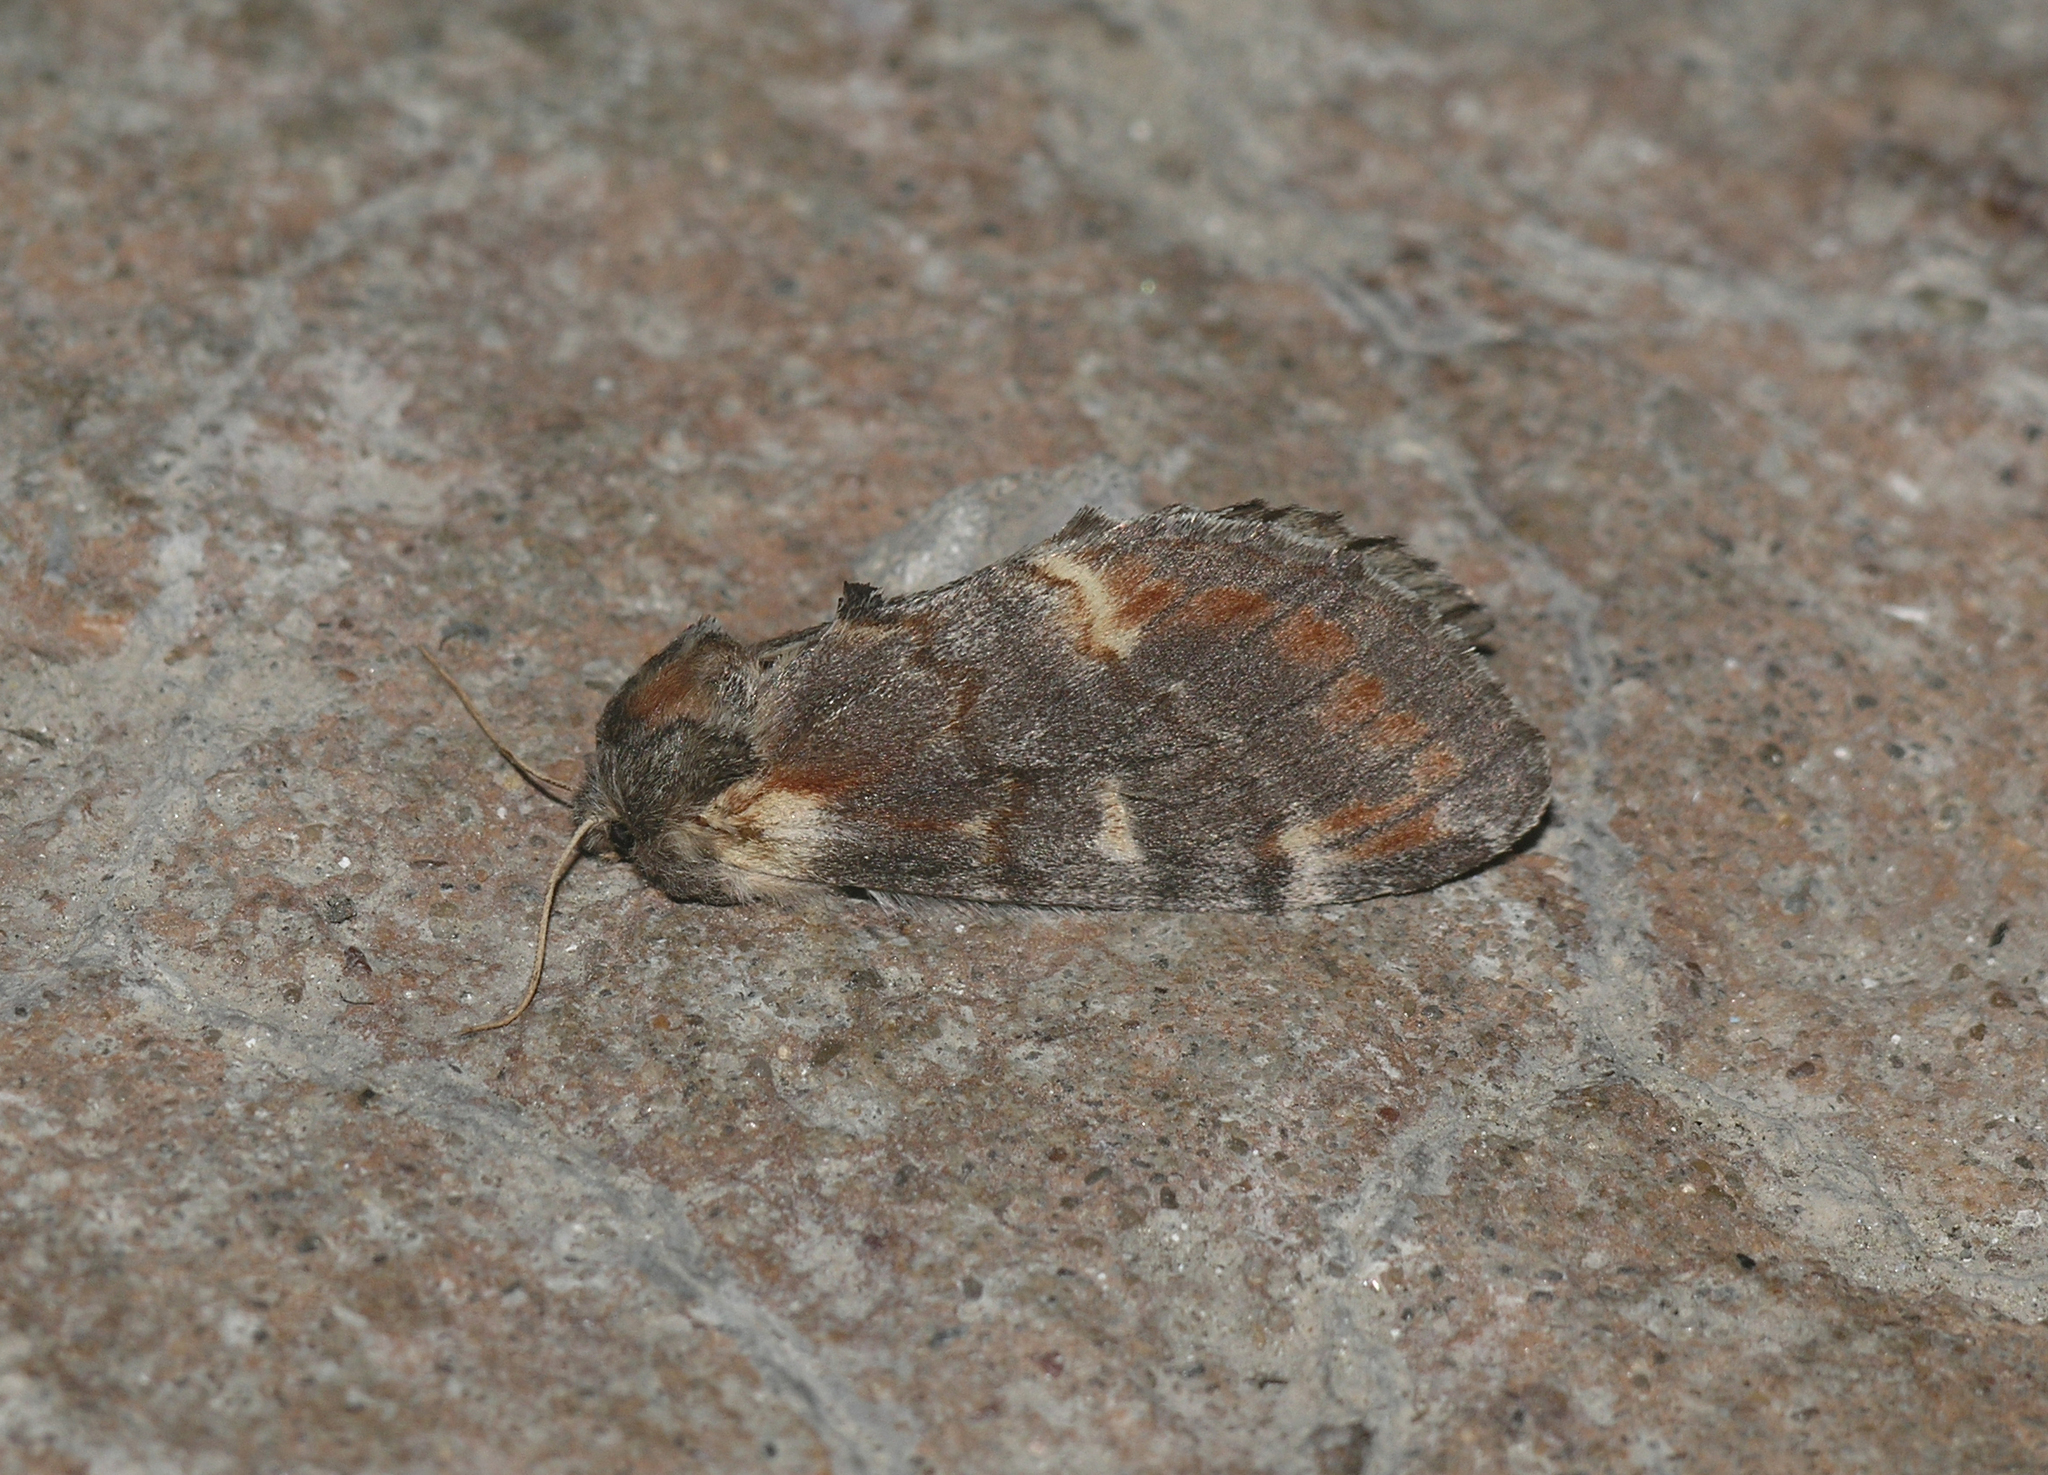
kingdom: Animalia
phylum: Arthropoda
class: Insecta
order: Lepidoptera
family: Notodontidae
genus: Notodonta
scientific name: Notodonta dromedarius
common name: Iron prominent
